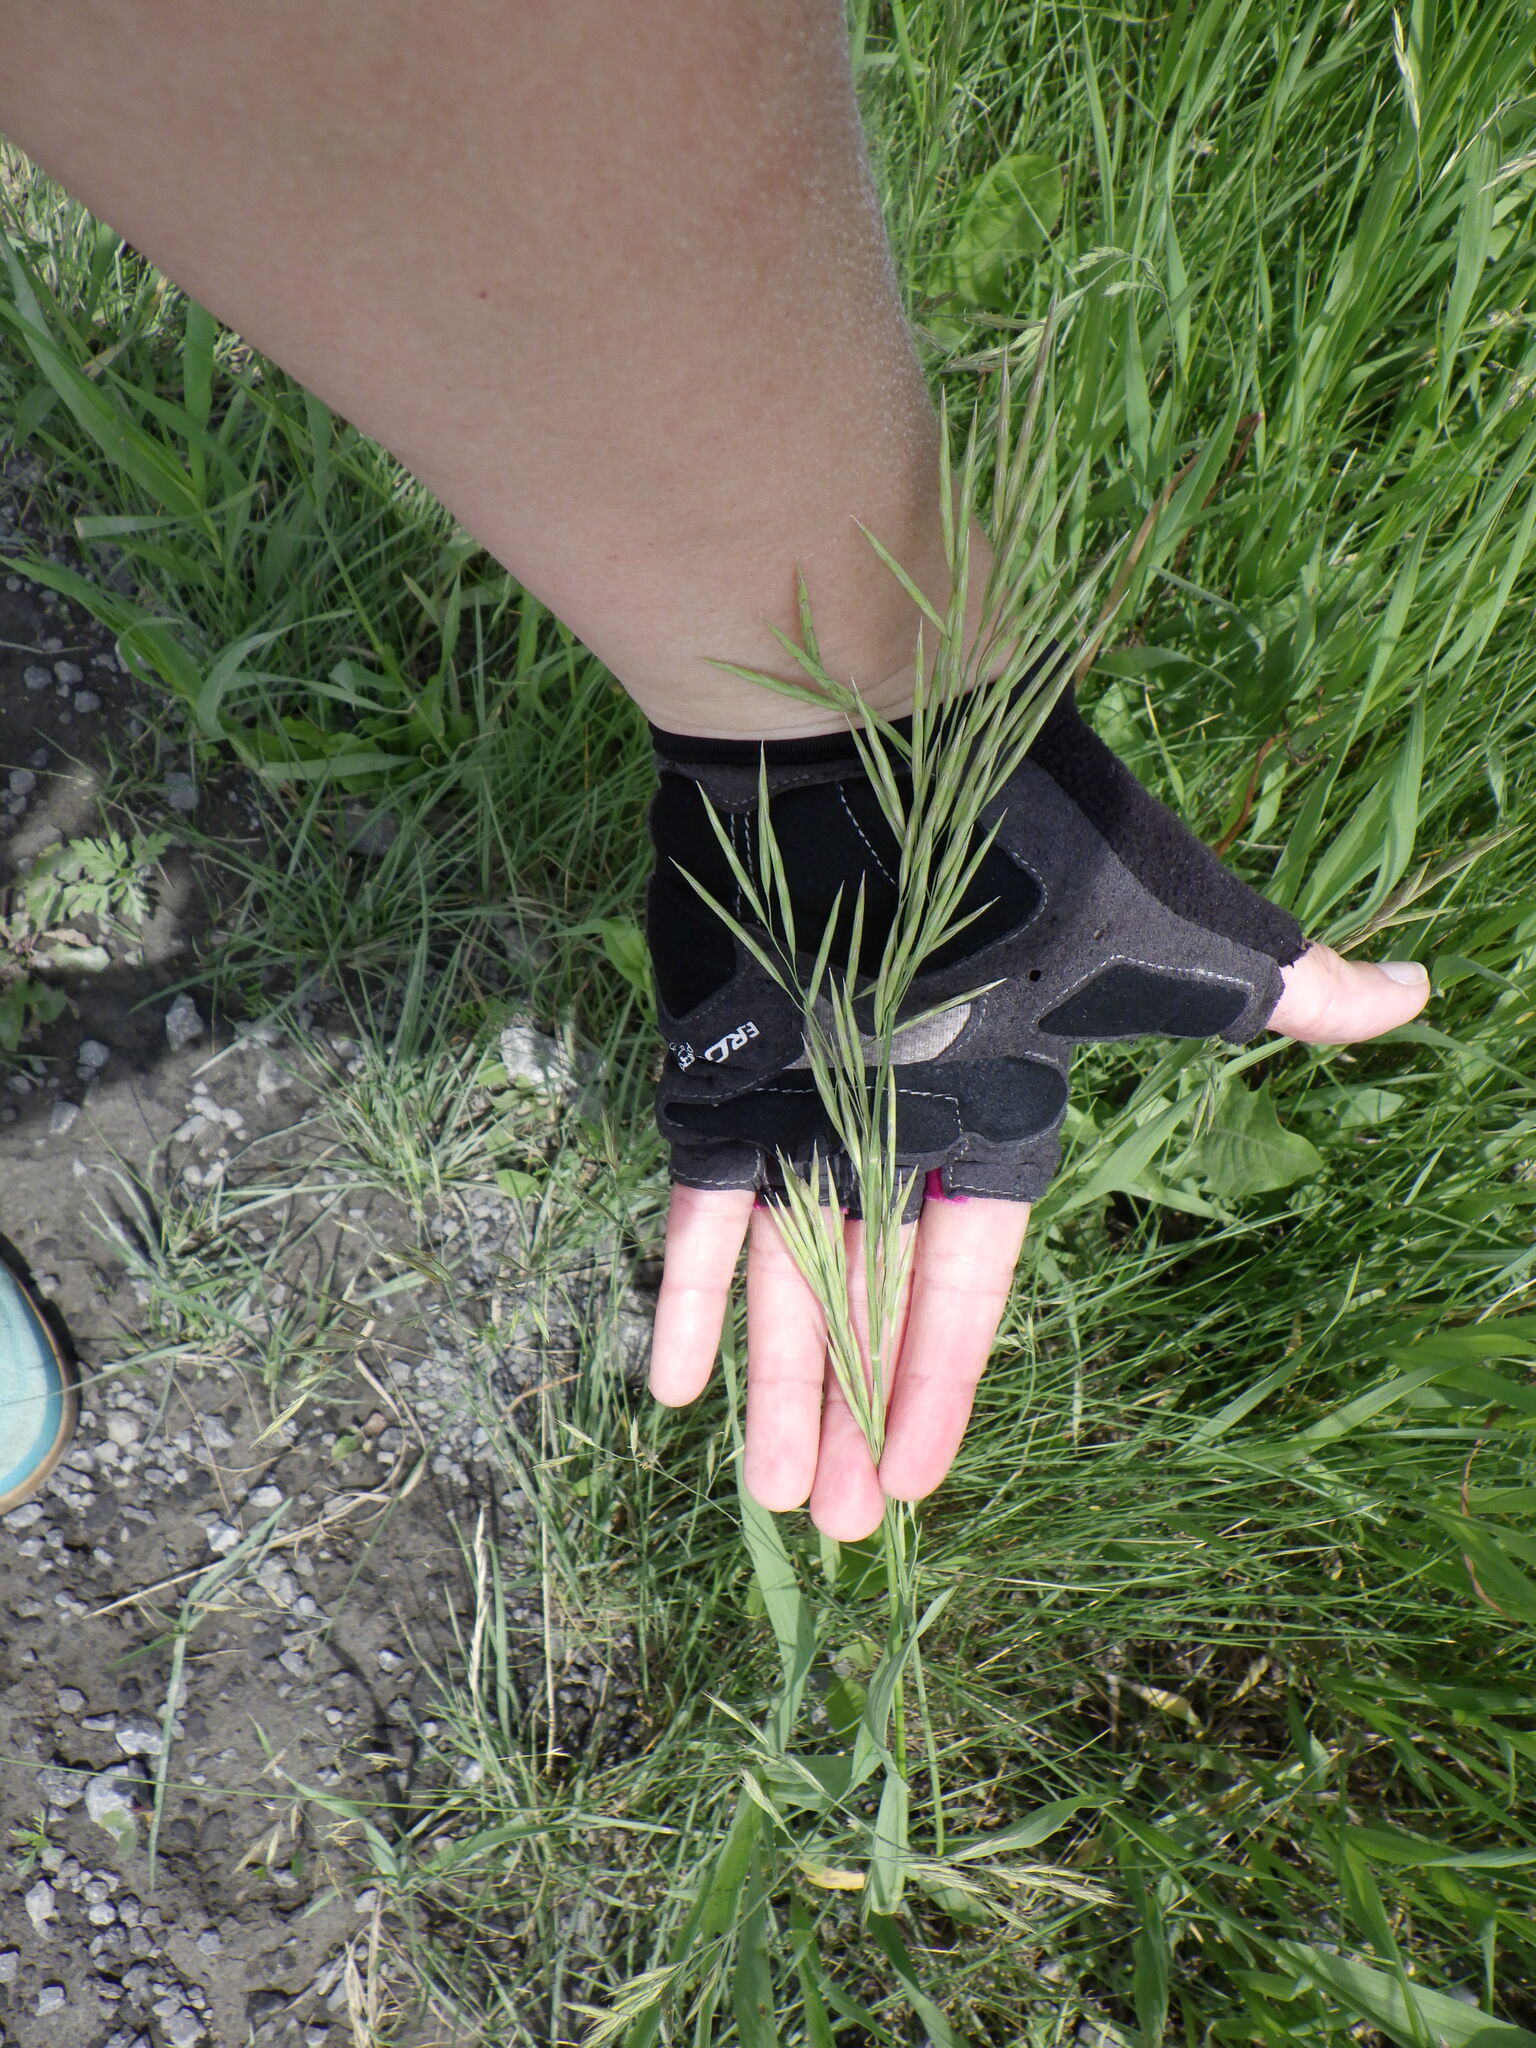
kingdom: Plantae
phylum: Tracheophyta
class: Liliopsida
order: Poales
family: Poaceae
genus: Bromus
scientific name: Bromus inermis
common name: Smooth brome
